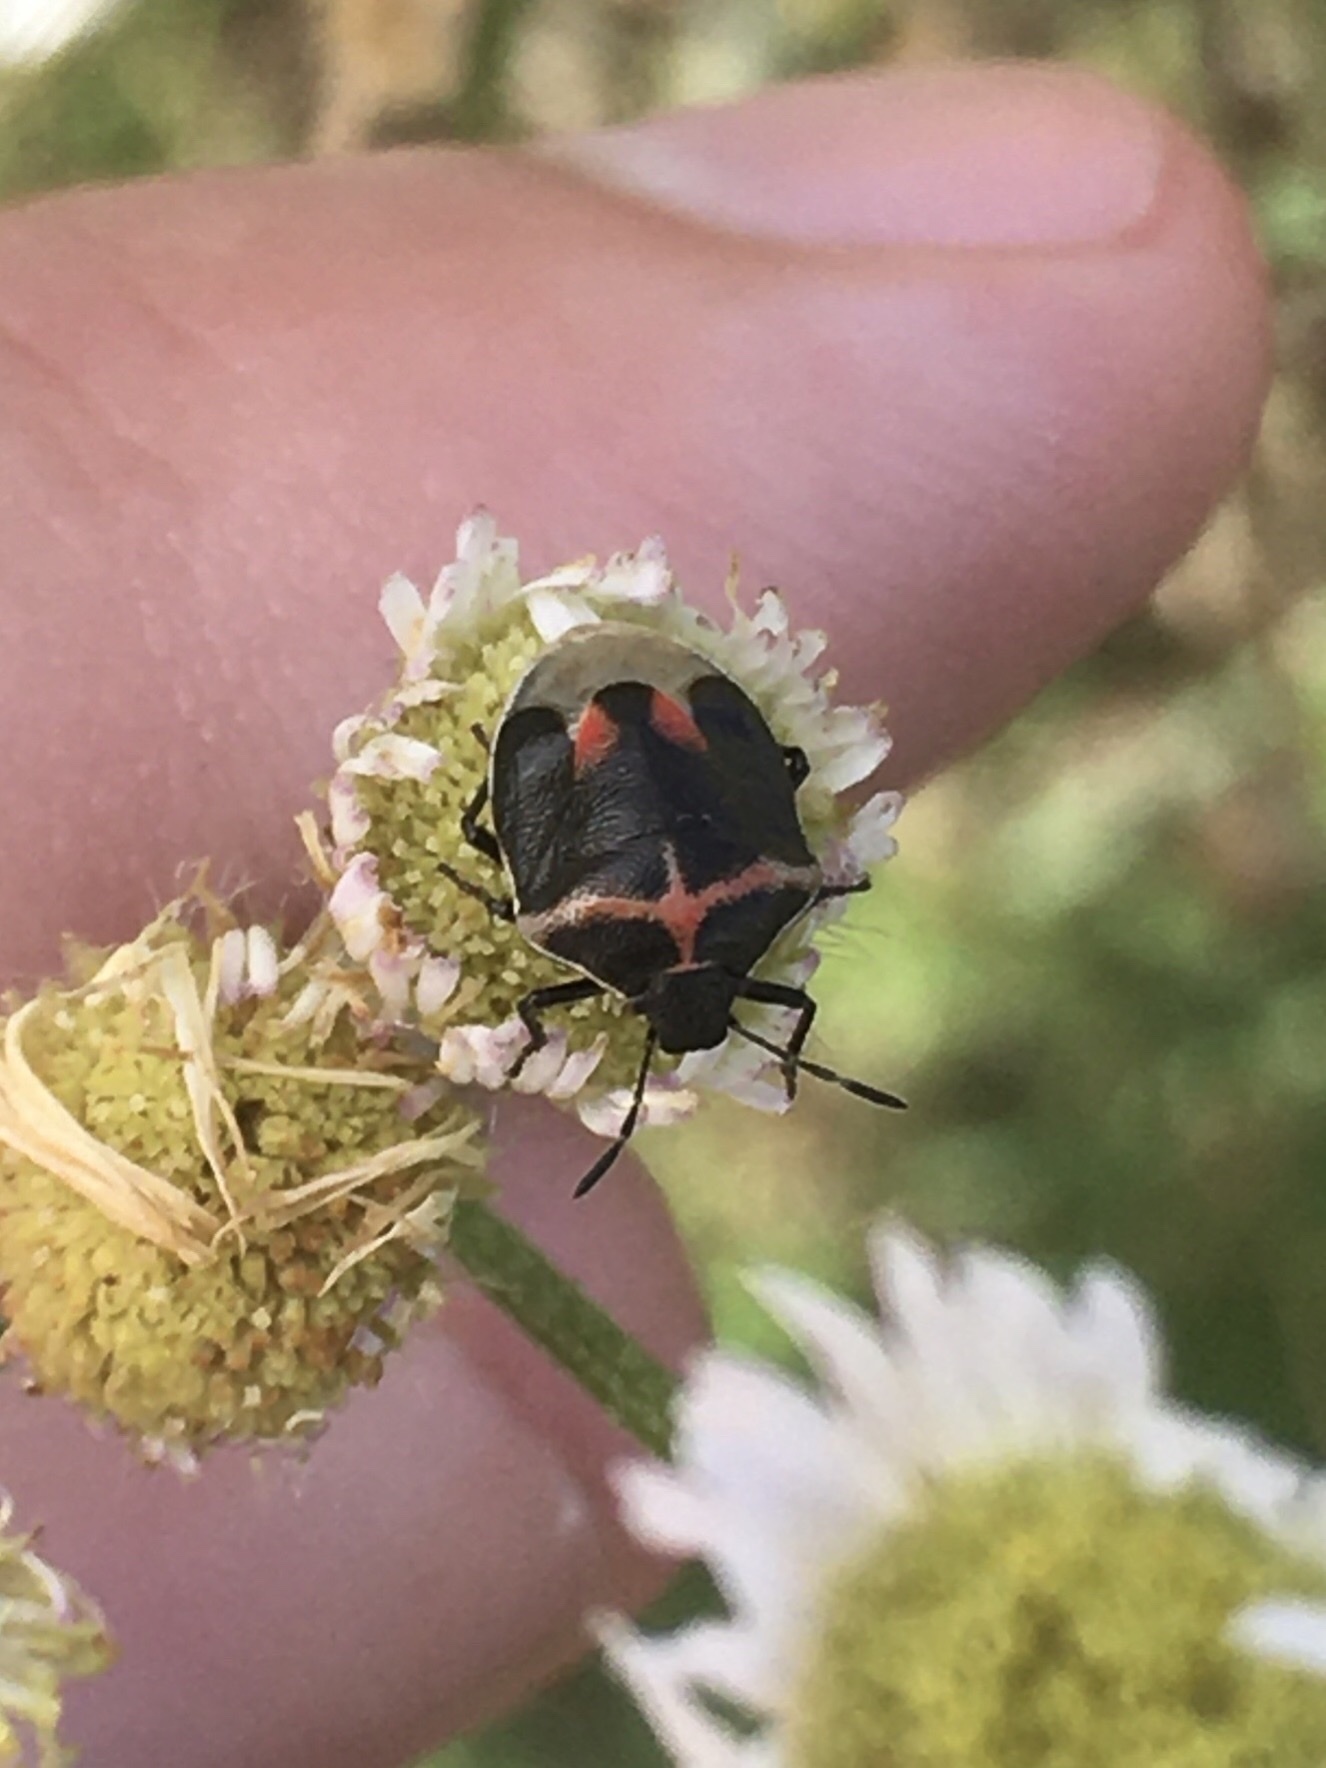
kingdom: Animalia
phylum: Arthropoda
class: Insecta
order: Hemiptera
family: Pentatomidae
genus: Cosmopepla
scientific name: Cosmopepla lintneriana
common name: Twice-stabbed stink bug
